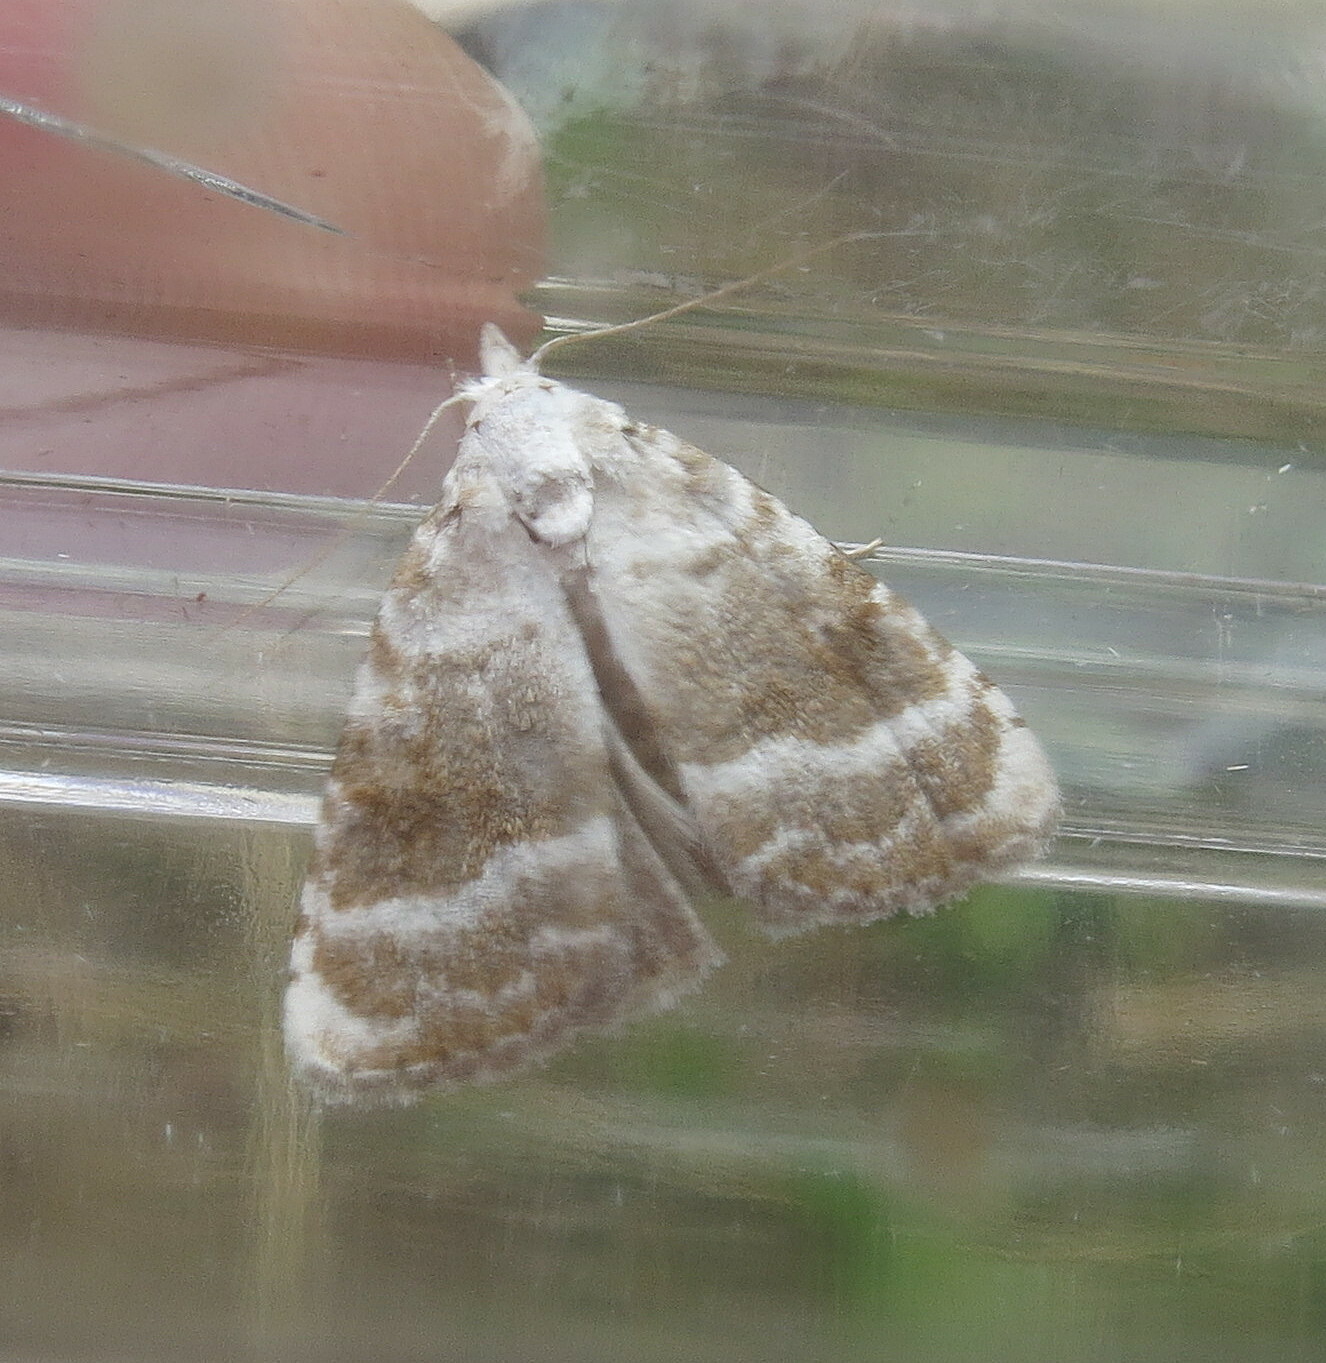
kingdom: Animalia
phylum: Arthropoda
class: Insecta
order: Lepidoptera
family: Nolidae
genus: Meganola
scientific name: Meganola albula
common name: Kent black arches
